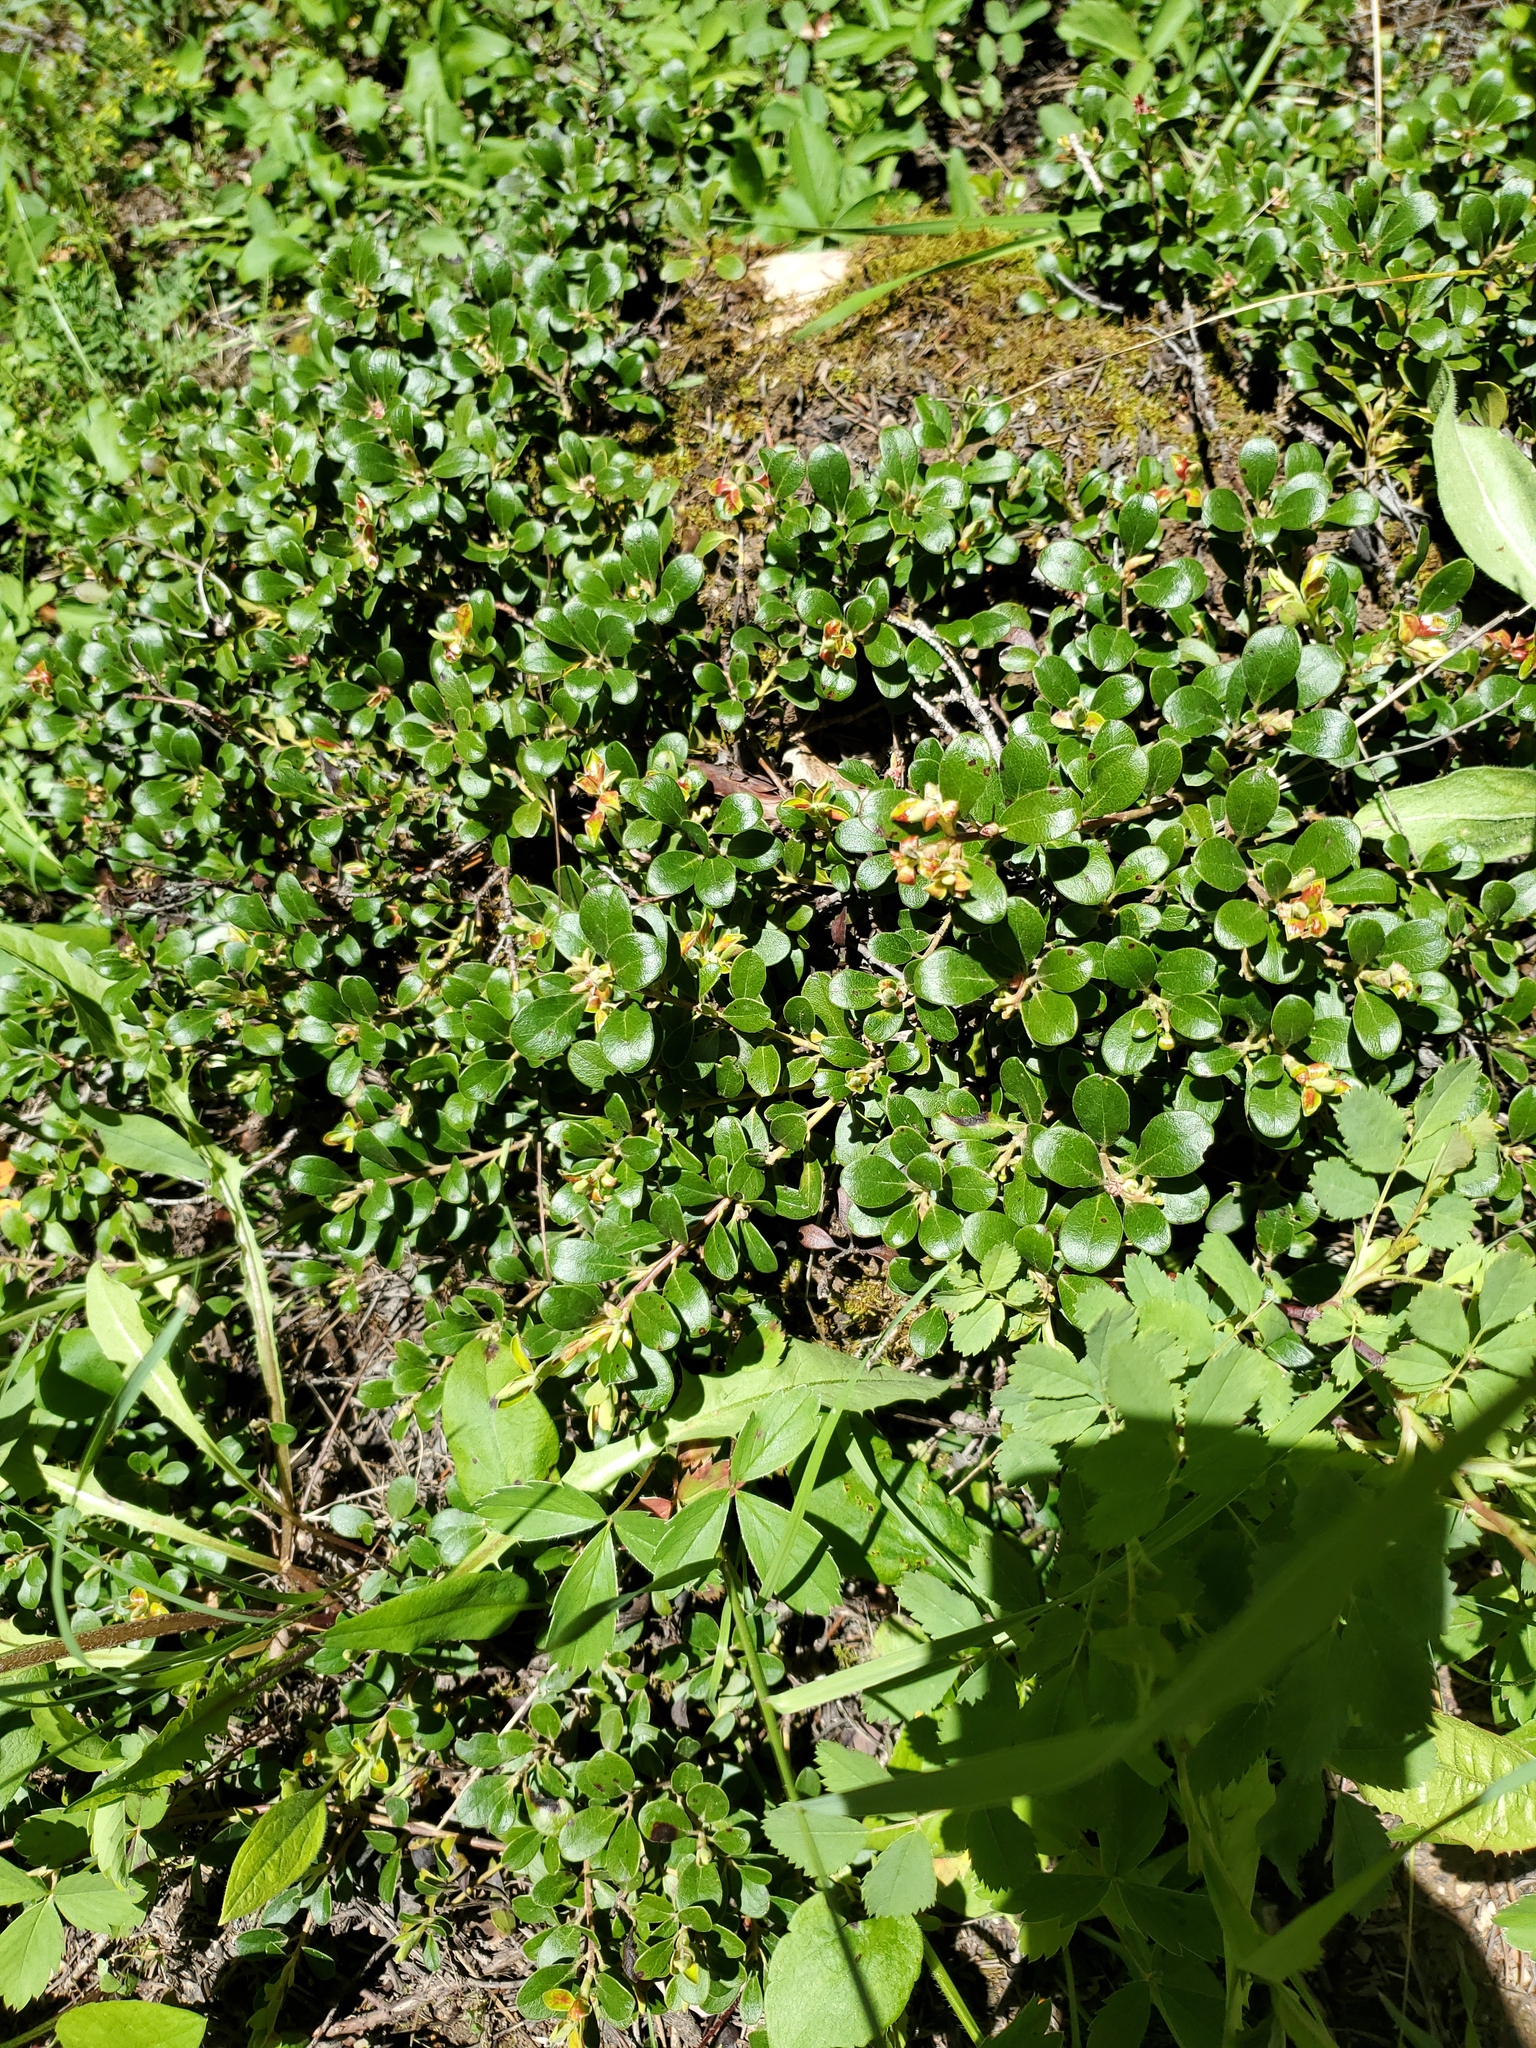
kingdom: Plantae
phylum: Tracheophyta
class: Magnoliopsida
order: Ericales
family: Ericaceae
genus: Arctostaphylos
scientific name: Arctostaphylos uva-ursi
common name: Bearberry
